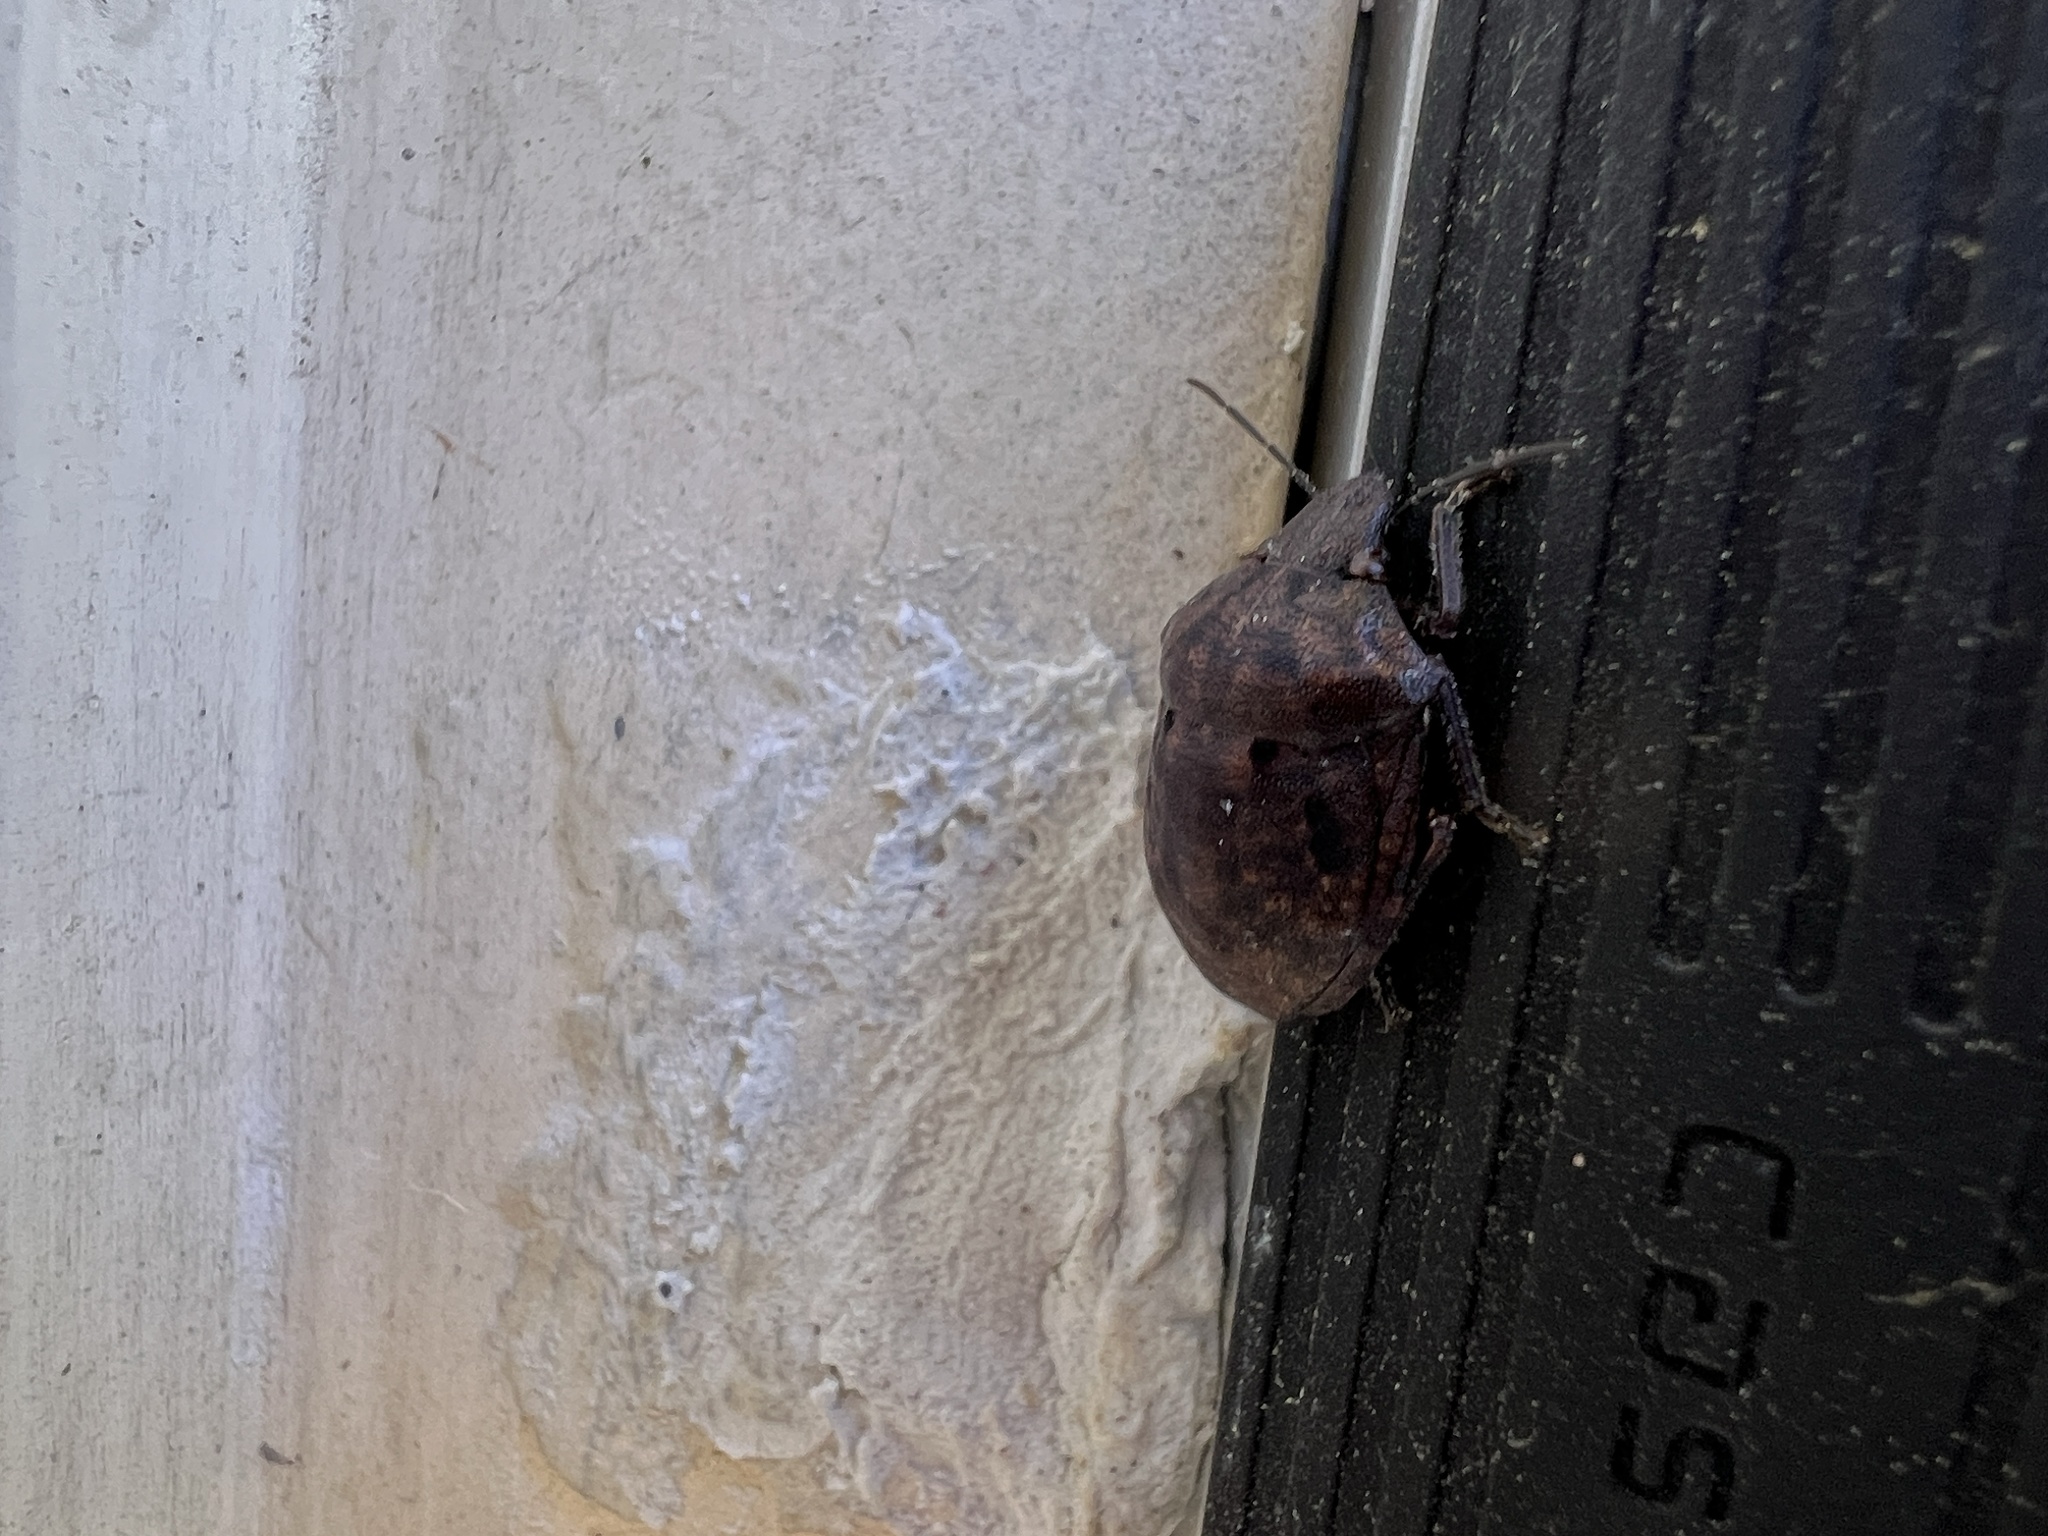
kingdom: Animalia
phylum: Arthropoda
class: Insecta
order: Hemiptera
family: Scutelleridae
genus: Tetyra
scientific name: Tetyra bipunctata
